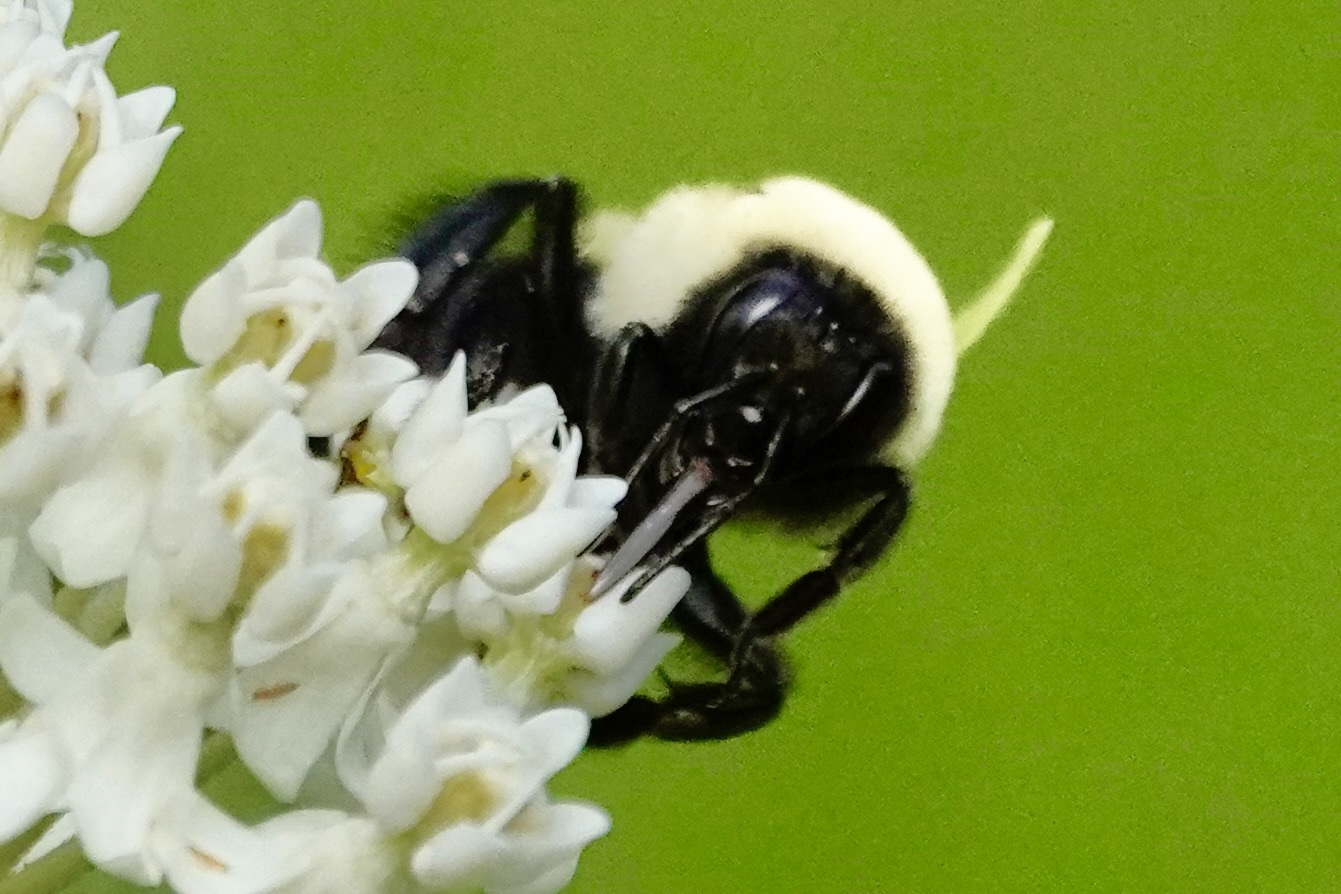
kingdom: Animalia
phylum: Arthropoda
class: Insecta
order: Hymenoptera
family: Apidae
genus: Bombus
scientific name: Bombus griseocollis
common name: Brown-belted bumble bee
